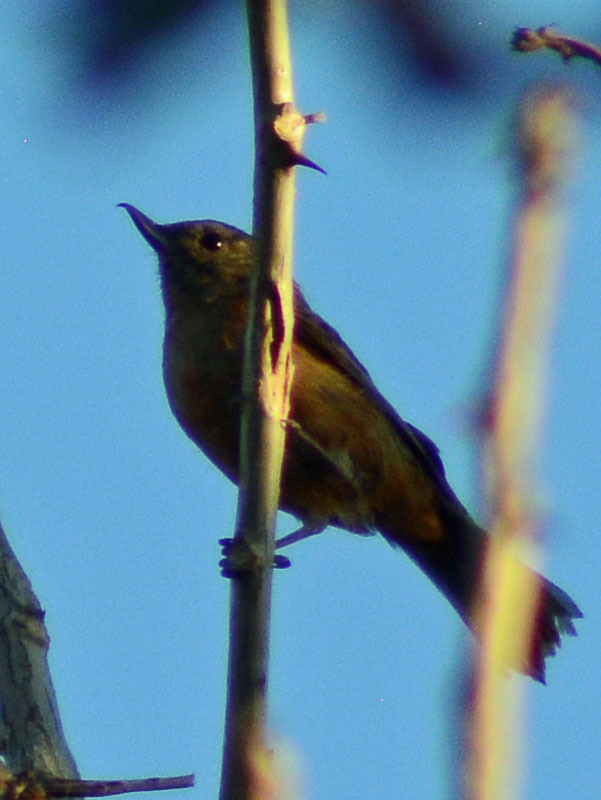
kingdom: Animalia
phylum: Chordata
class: Aves
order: Passeriformes
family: Thraupidae
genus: Diglossa
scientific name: Diglossa baritula
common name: Cinnamon-bellied flowerpiercer
